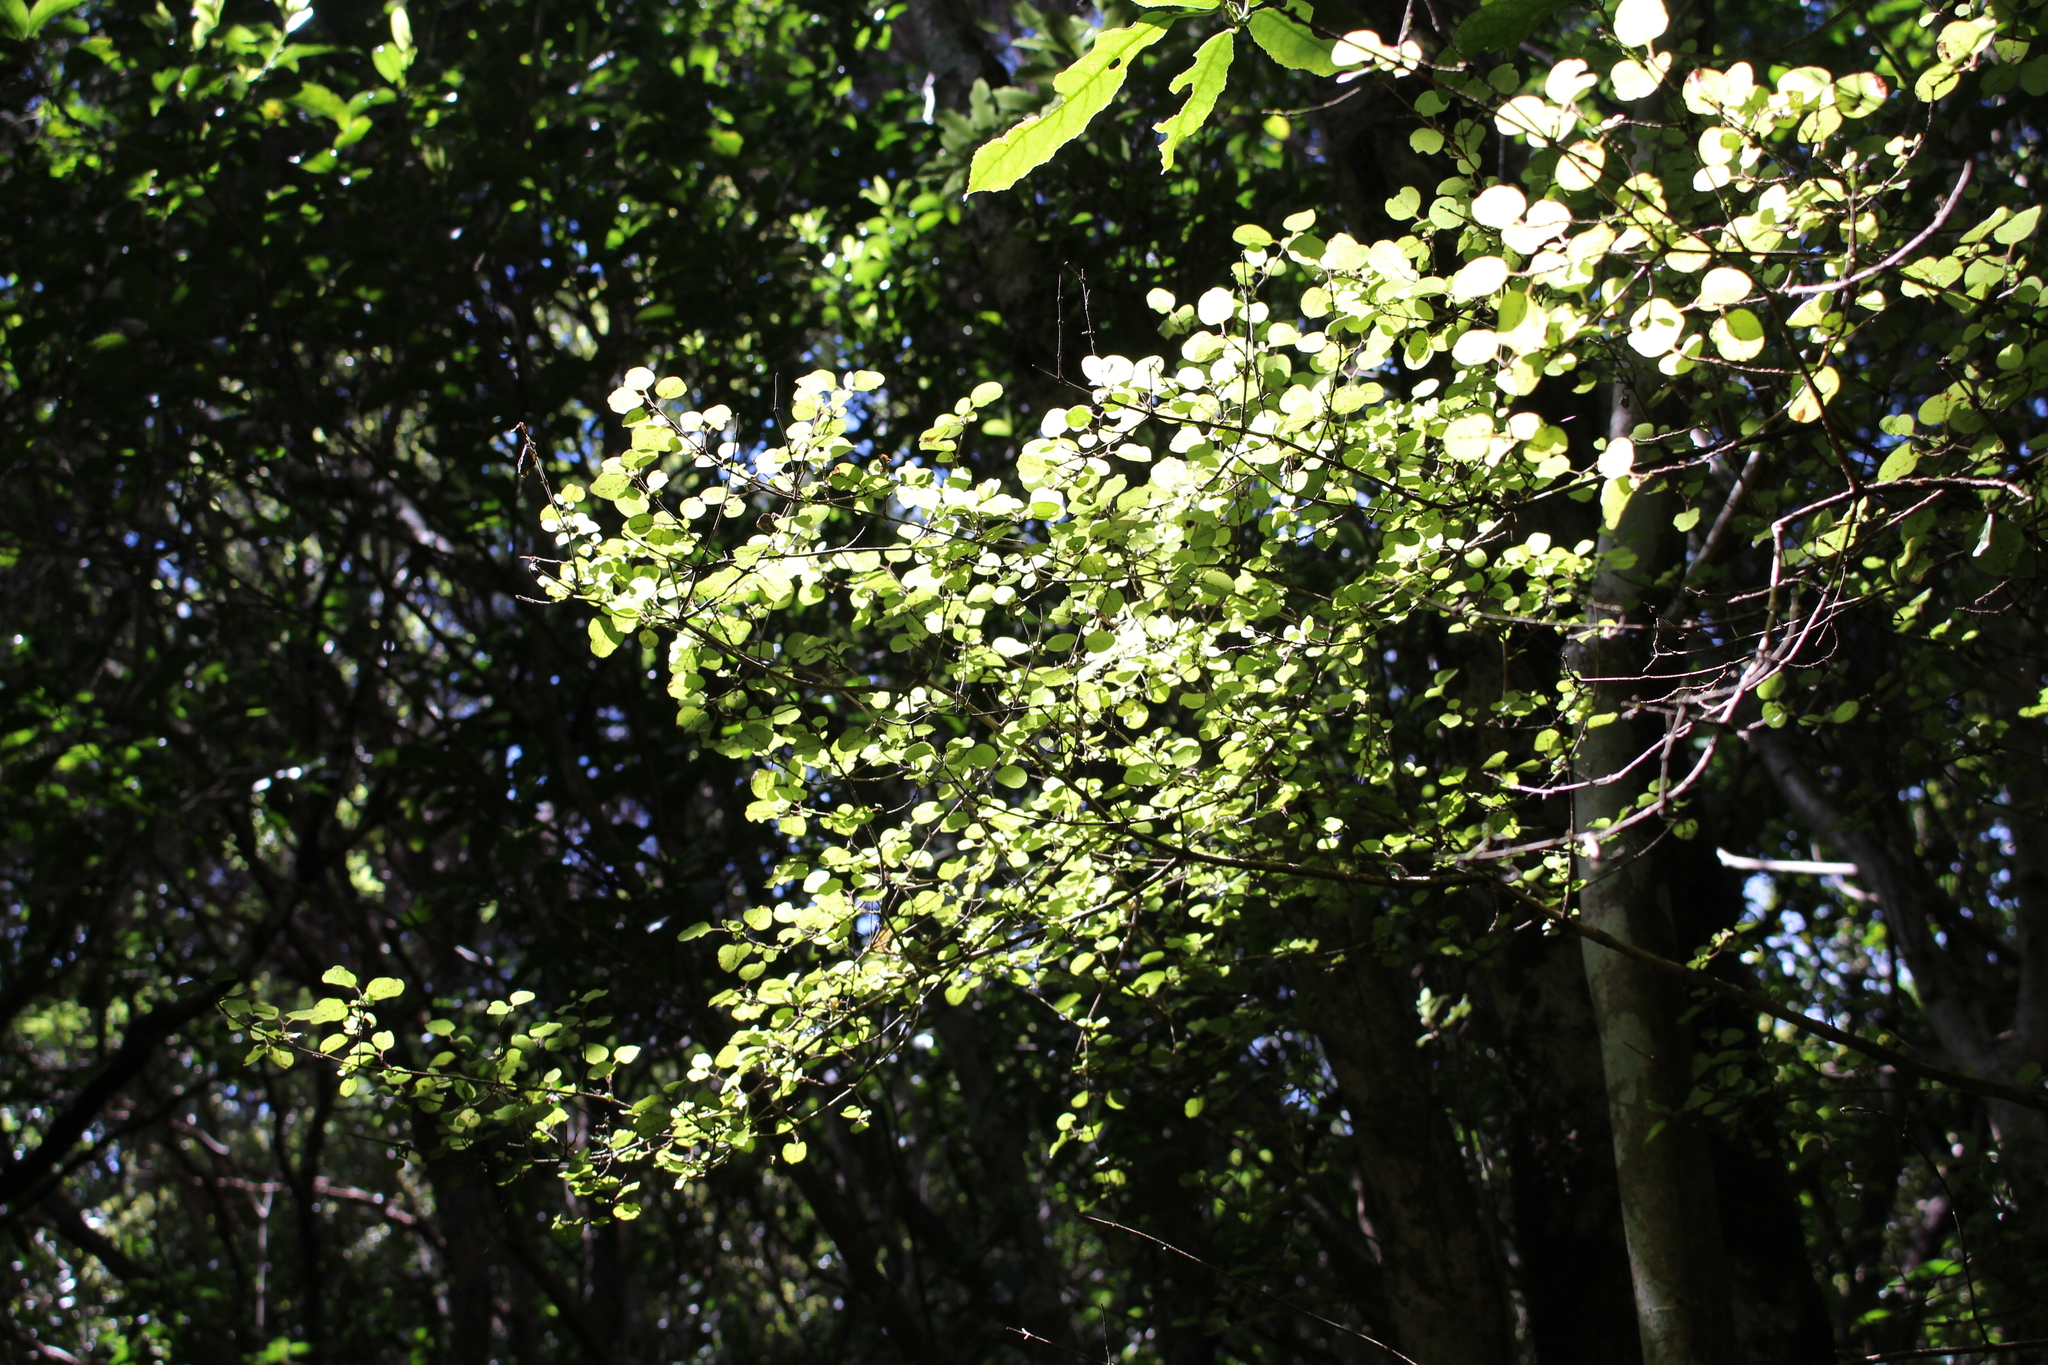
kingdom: Plantae
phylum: Tracheophyta
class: Magnoliopsida
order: Gentianales
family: Rubiaceae
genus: Coprosma
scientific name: Coprosma rotundifolia
